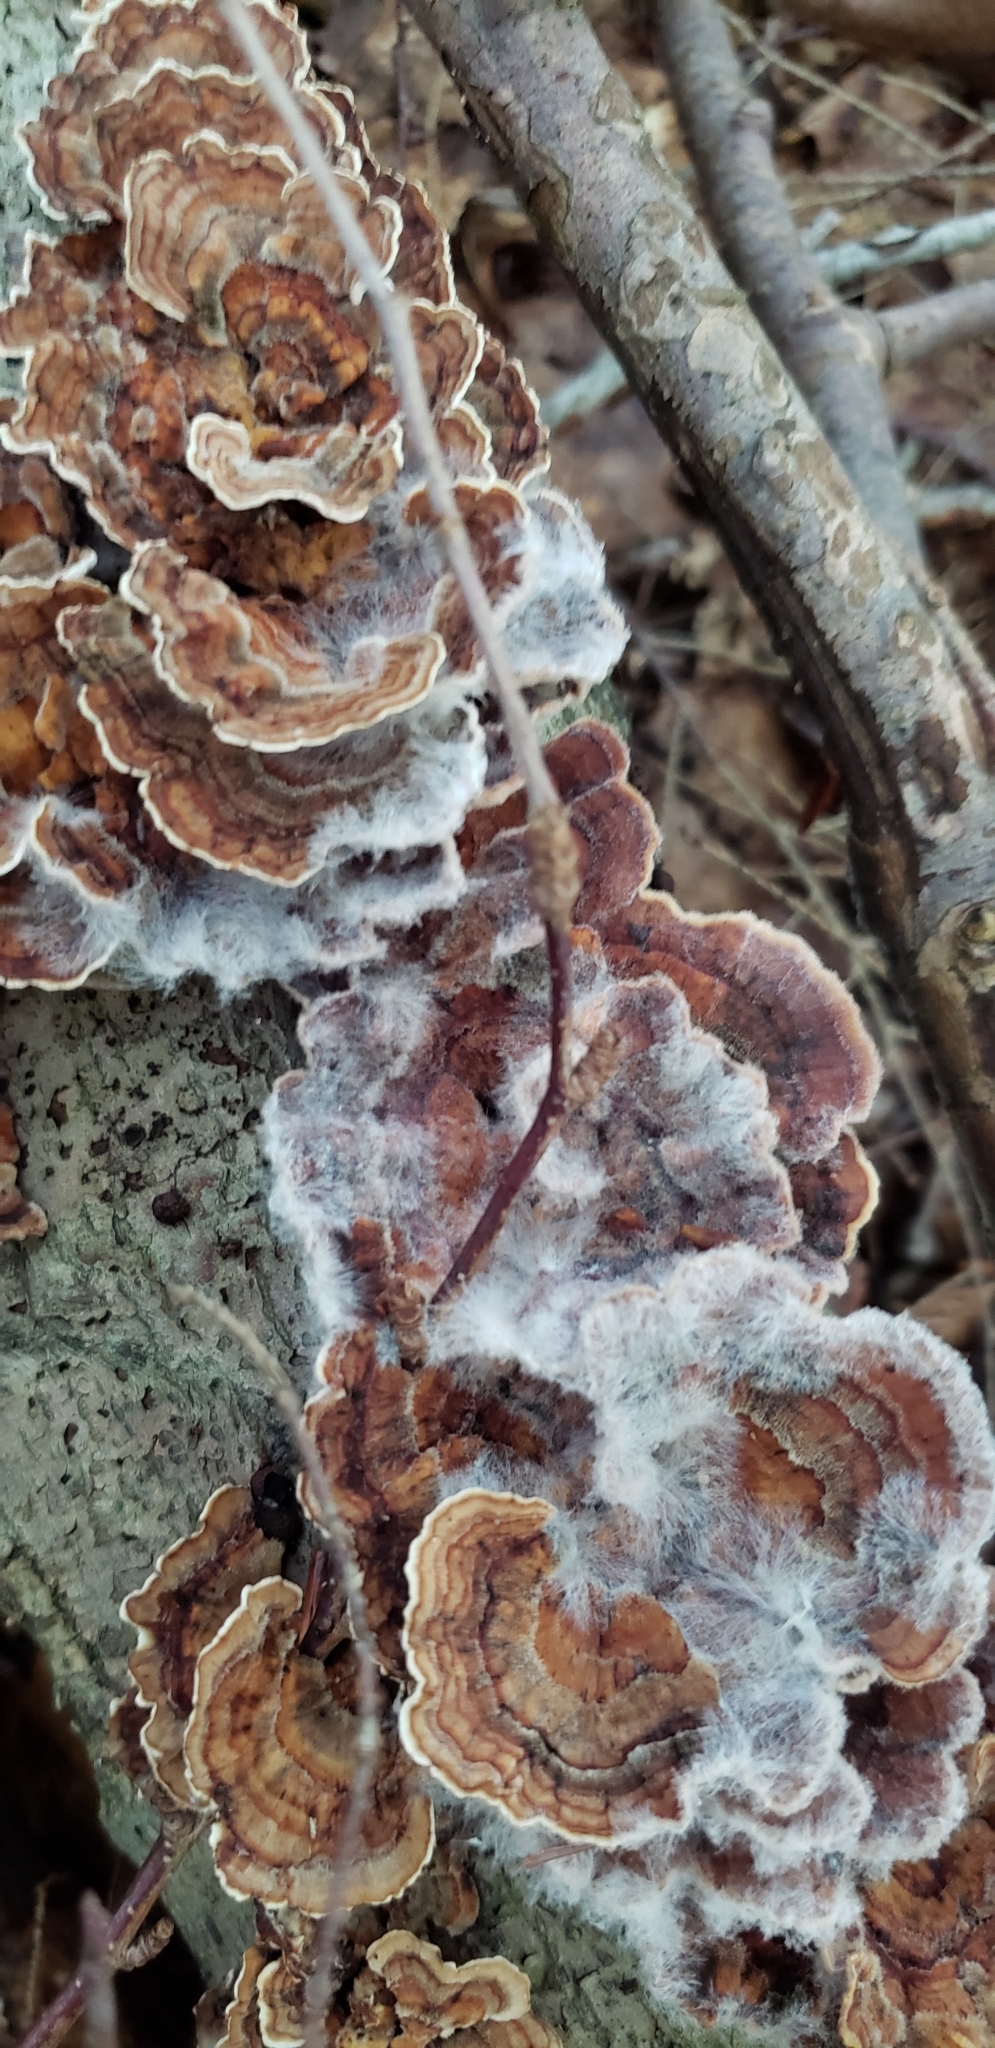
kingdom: Fungi
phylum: Basidiomycota
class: Agaricomycetes
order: Polyporales
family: Polyporaceae
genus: Trametes
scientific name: Trametes versicolor
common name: Turkeytail
